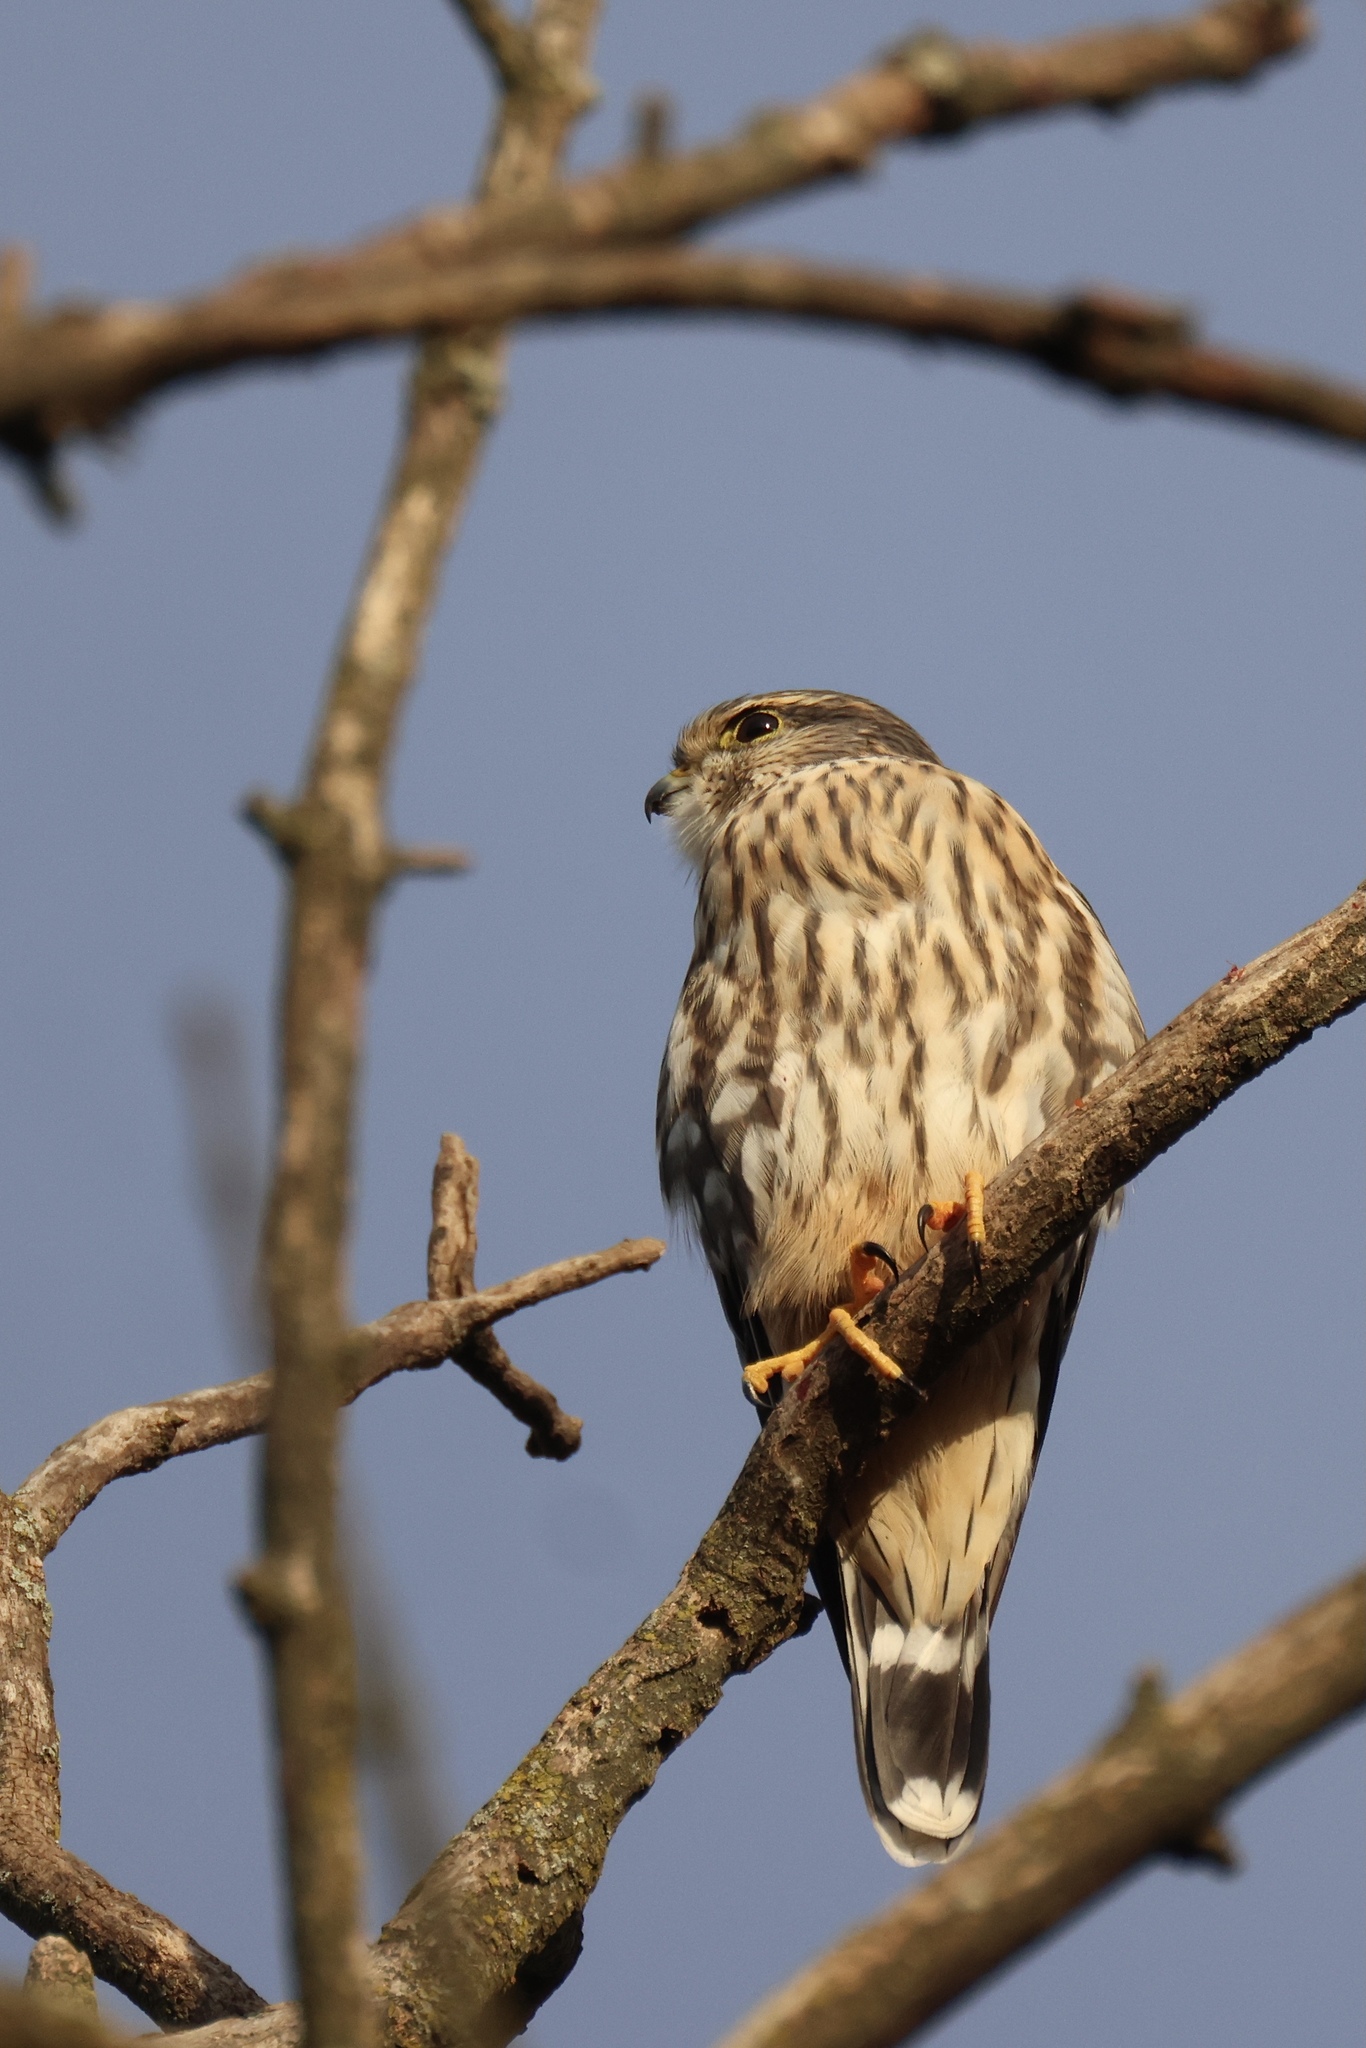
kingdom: Animalia
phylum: Chordata
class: Aves
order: Falconiformes
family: Falconidae
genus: Falco
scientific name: Falco columbarius
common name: Merlin
